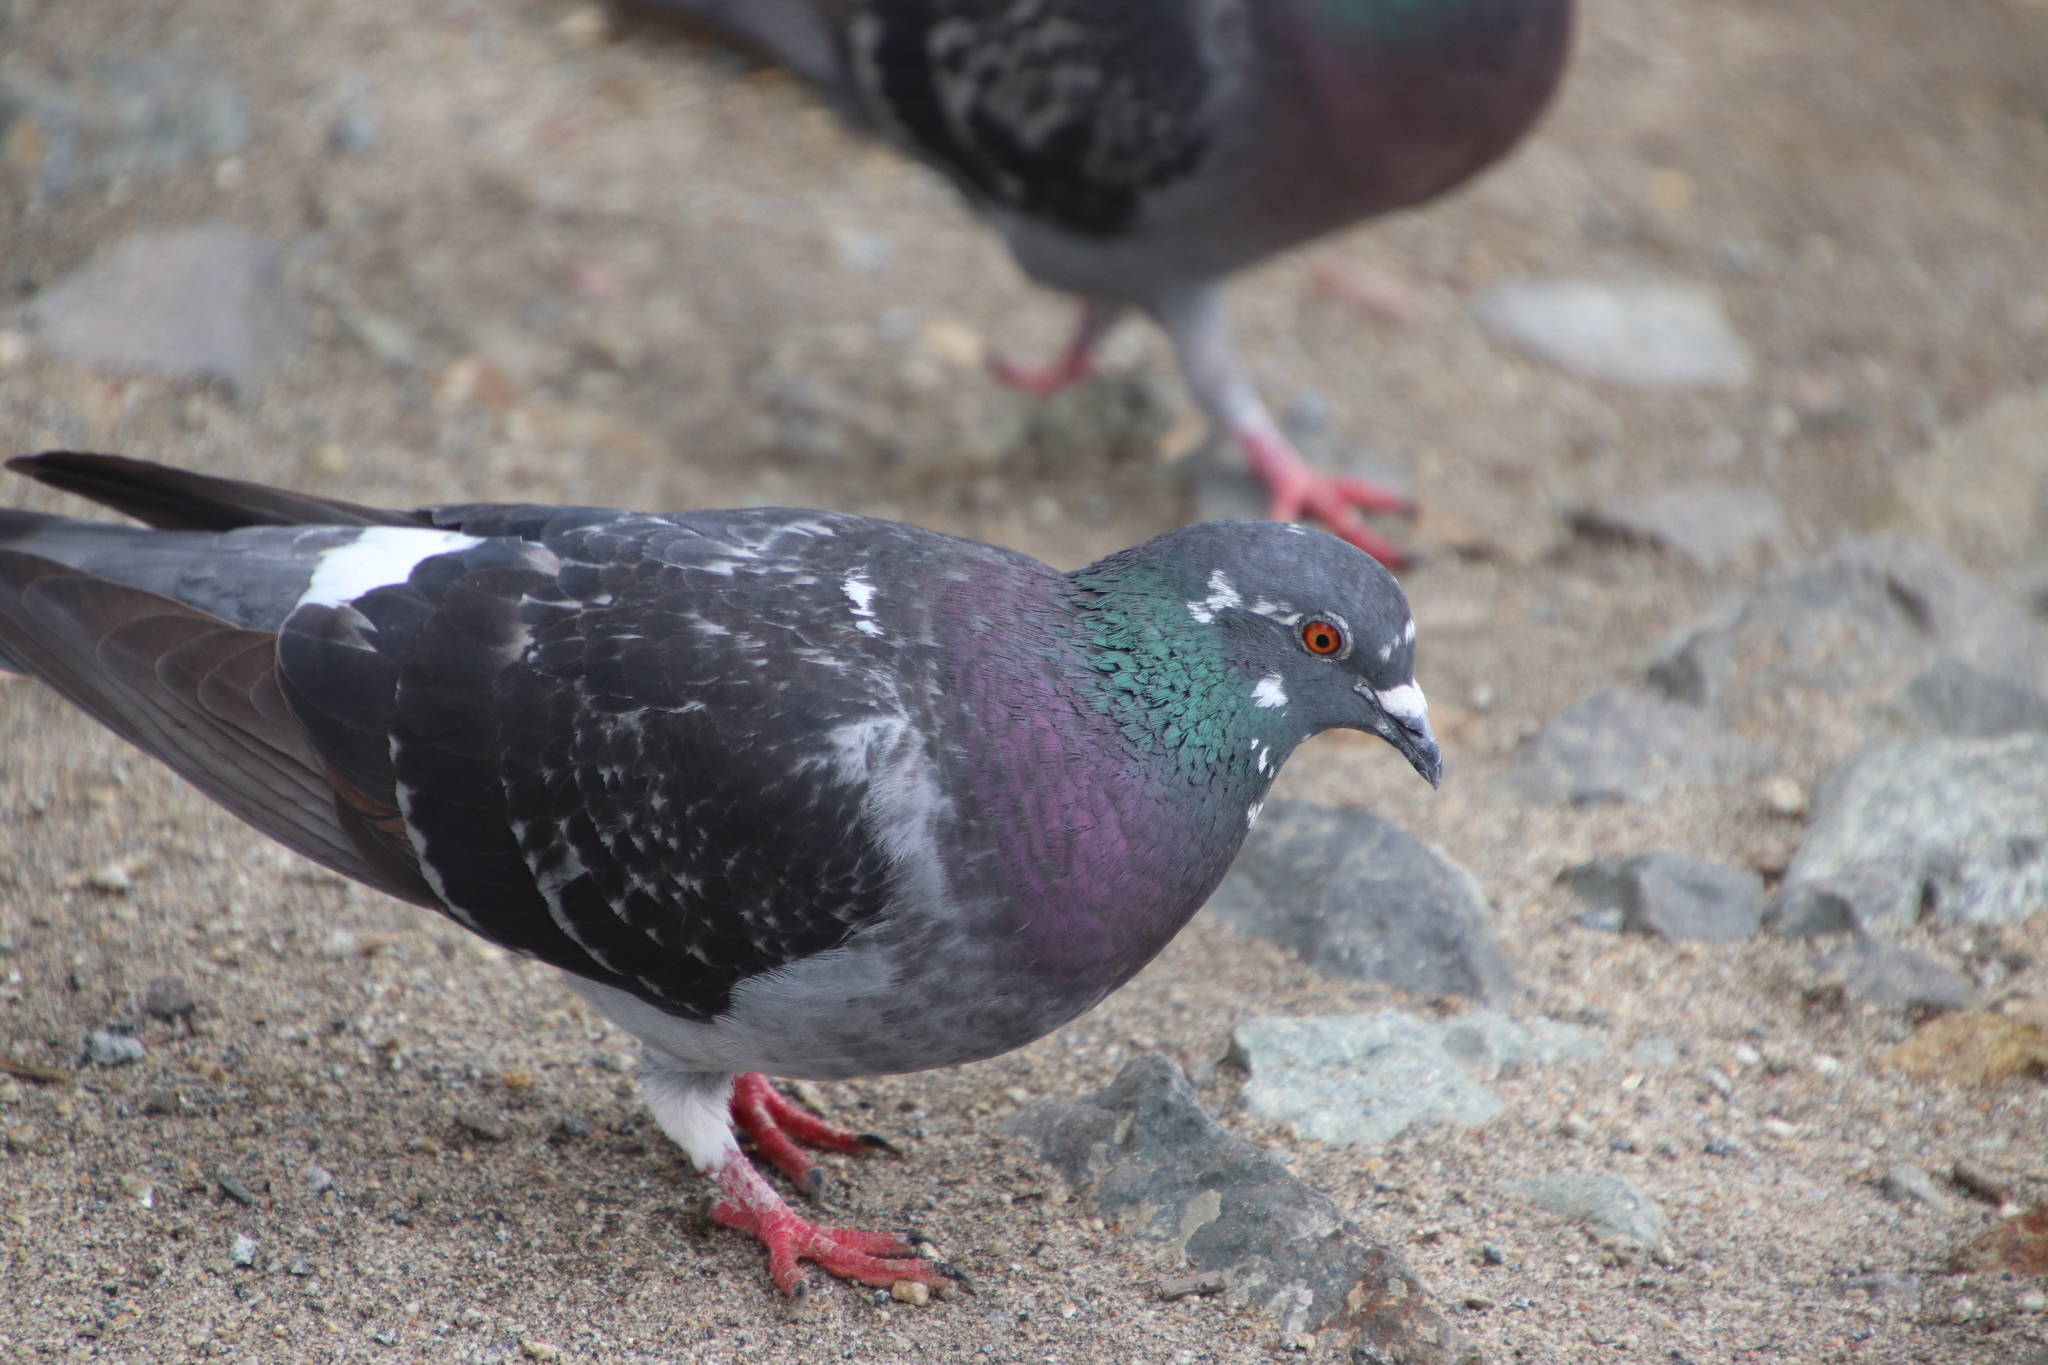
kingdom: Animalia
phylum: Chordata
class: Aves
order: Columbiformes
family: Columbidae
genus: Columba
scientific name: Columba livia
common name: Rock pigeon
